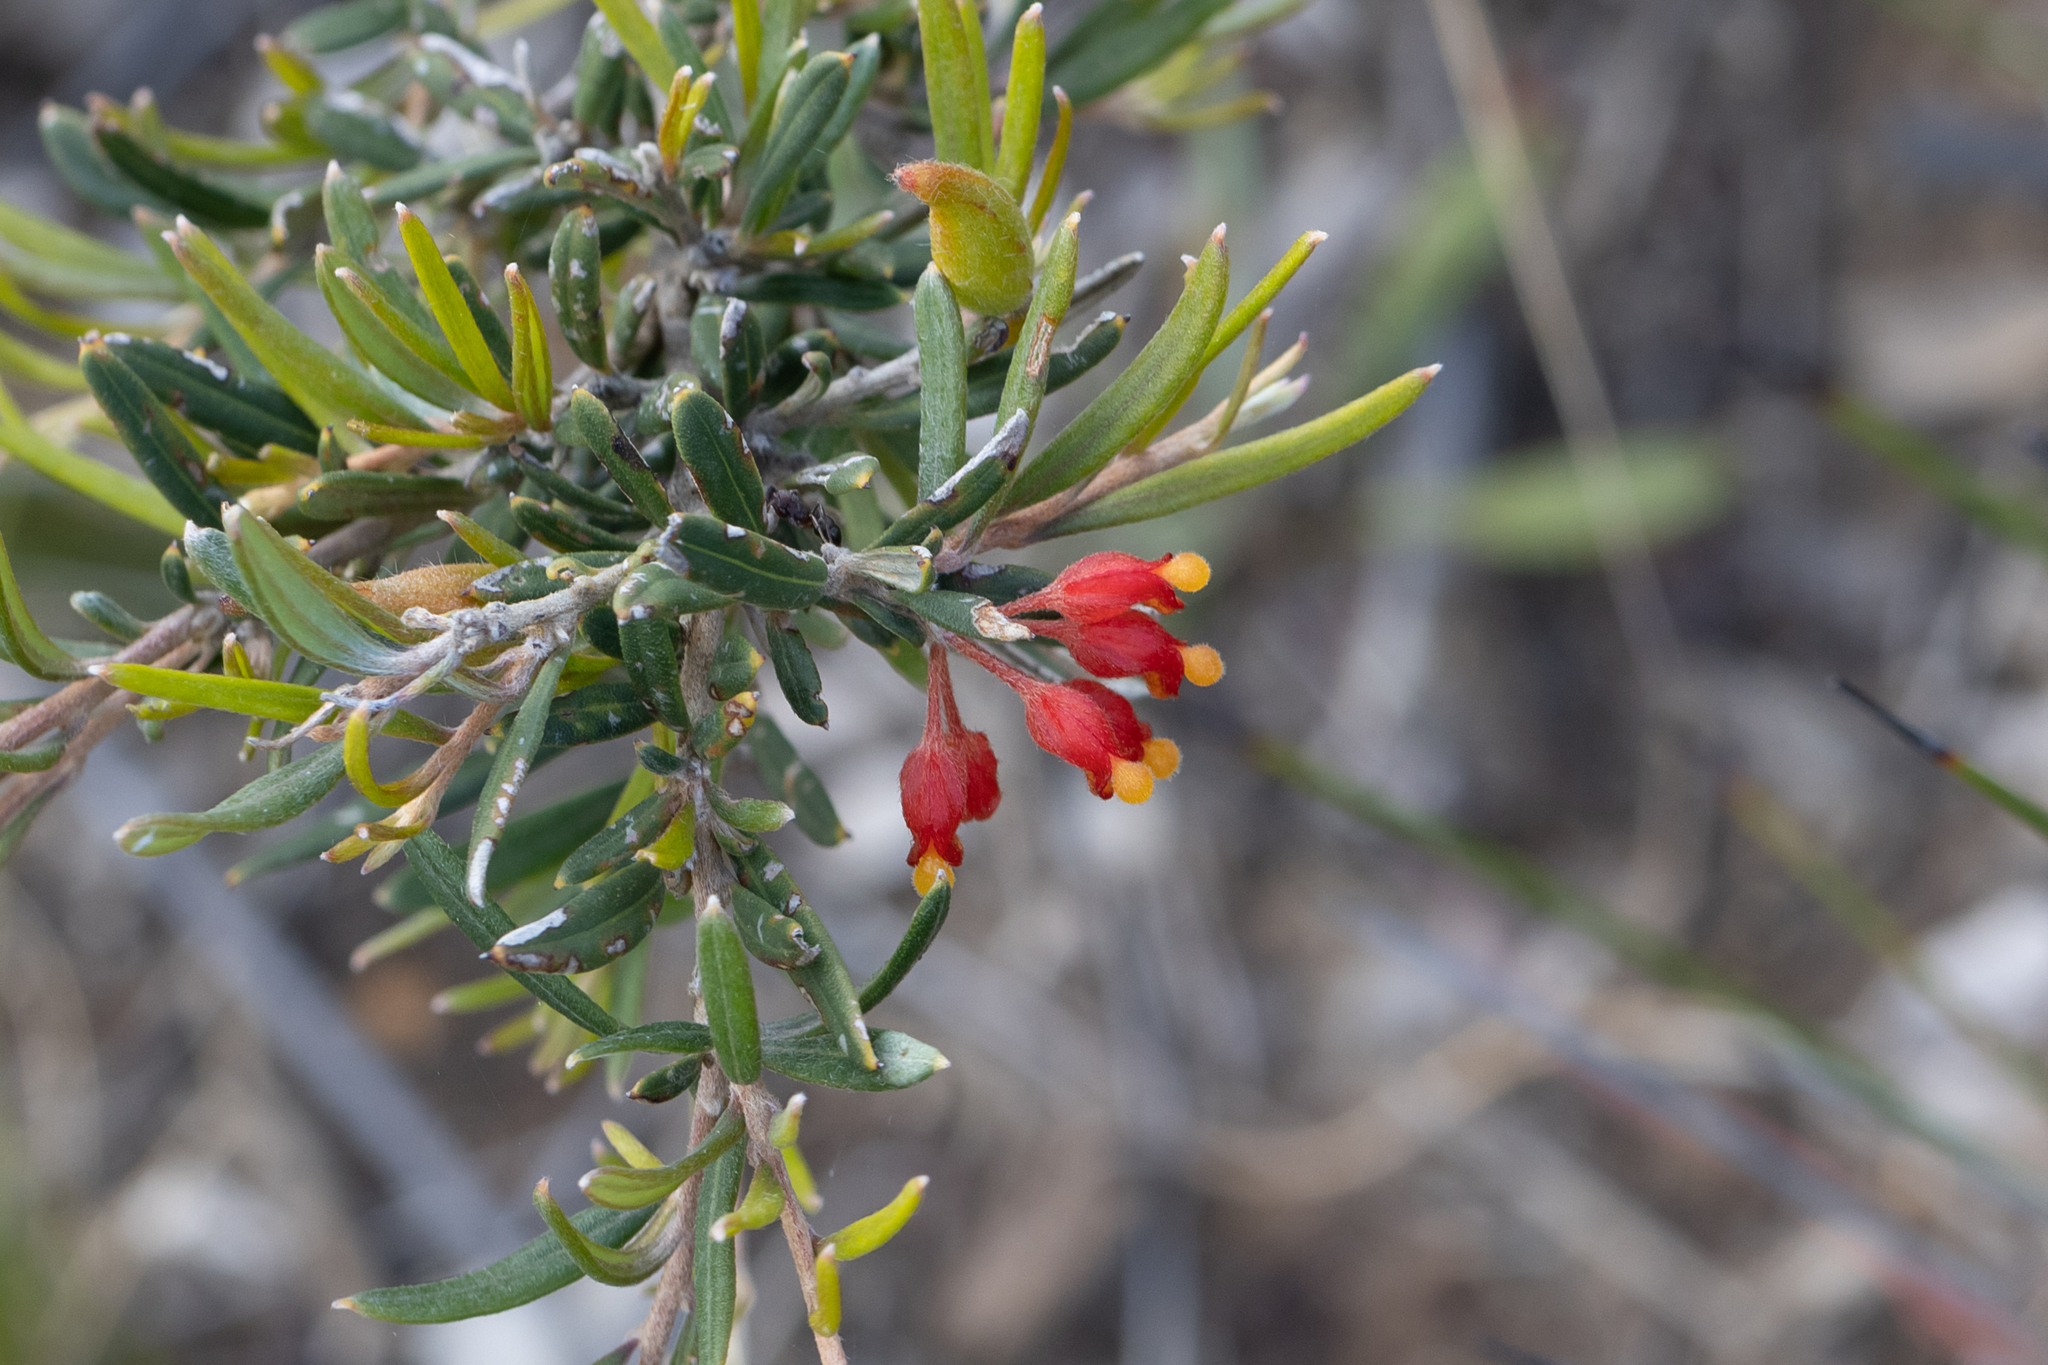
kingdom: Plantae
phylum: Tracheophyta
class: Magnoliopsida
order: Proteales
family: Proteaceae
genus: Grevillea
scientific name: Grevillea fasciculata
